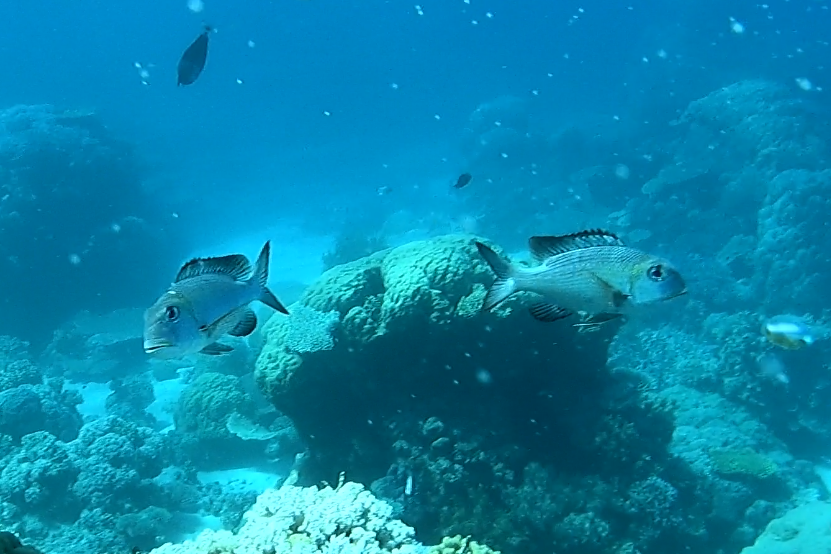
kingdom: Animalia
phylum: Chordata
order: Perciformes
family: Lethrinidae
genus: Monotaxis
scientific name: Monotaxis grandoculis
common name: Bigeye emperor
